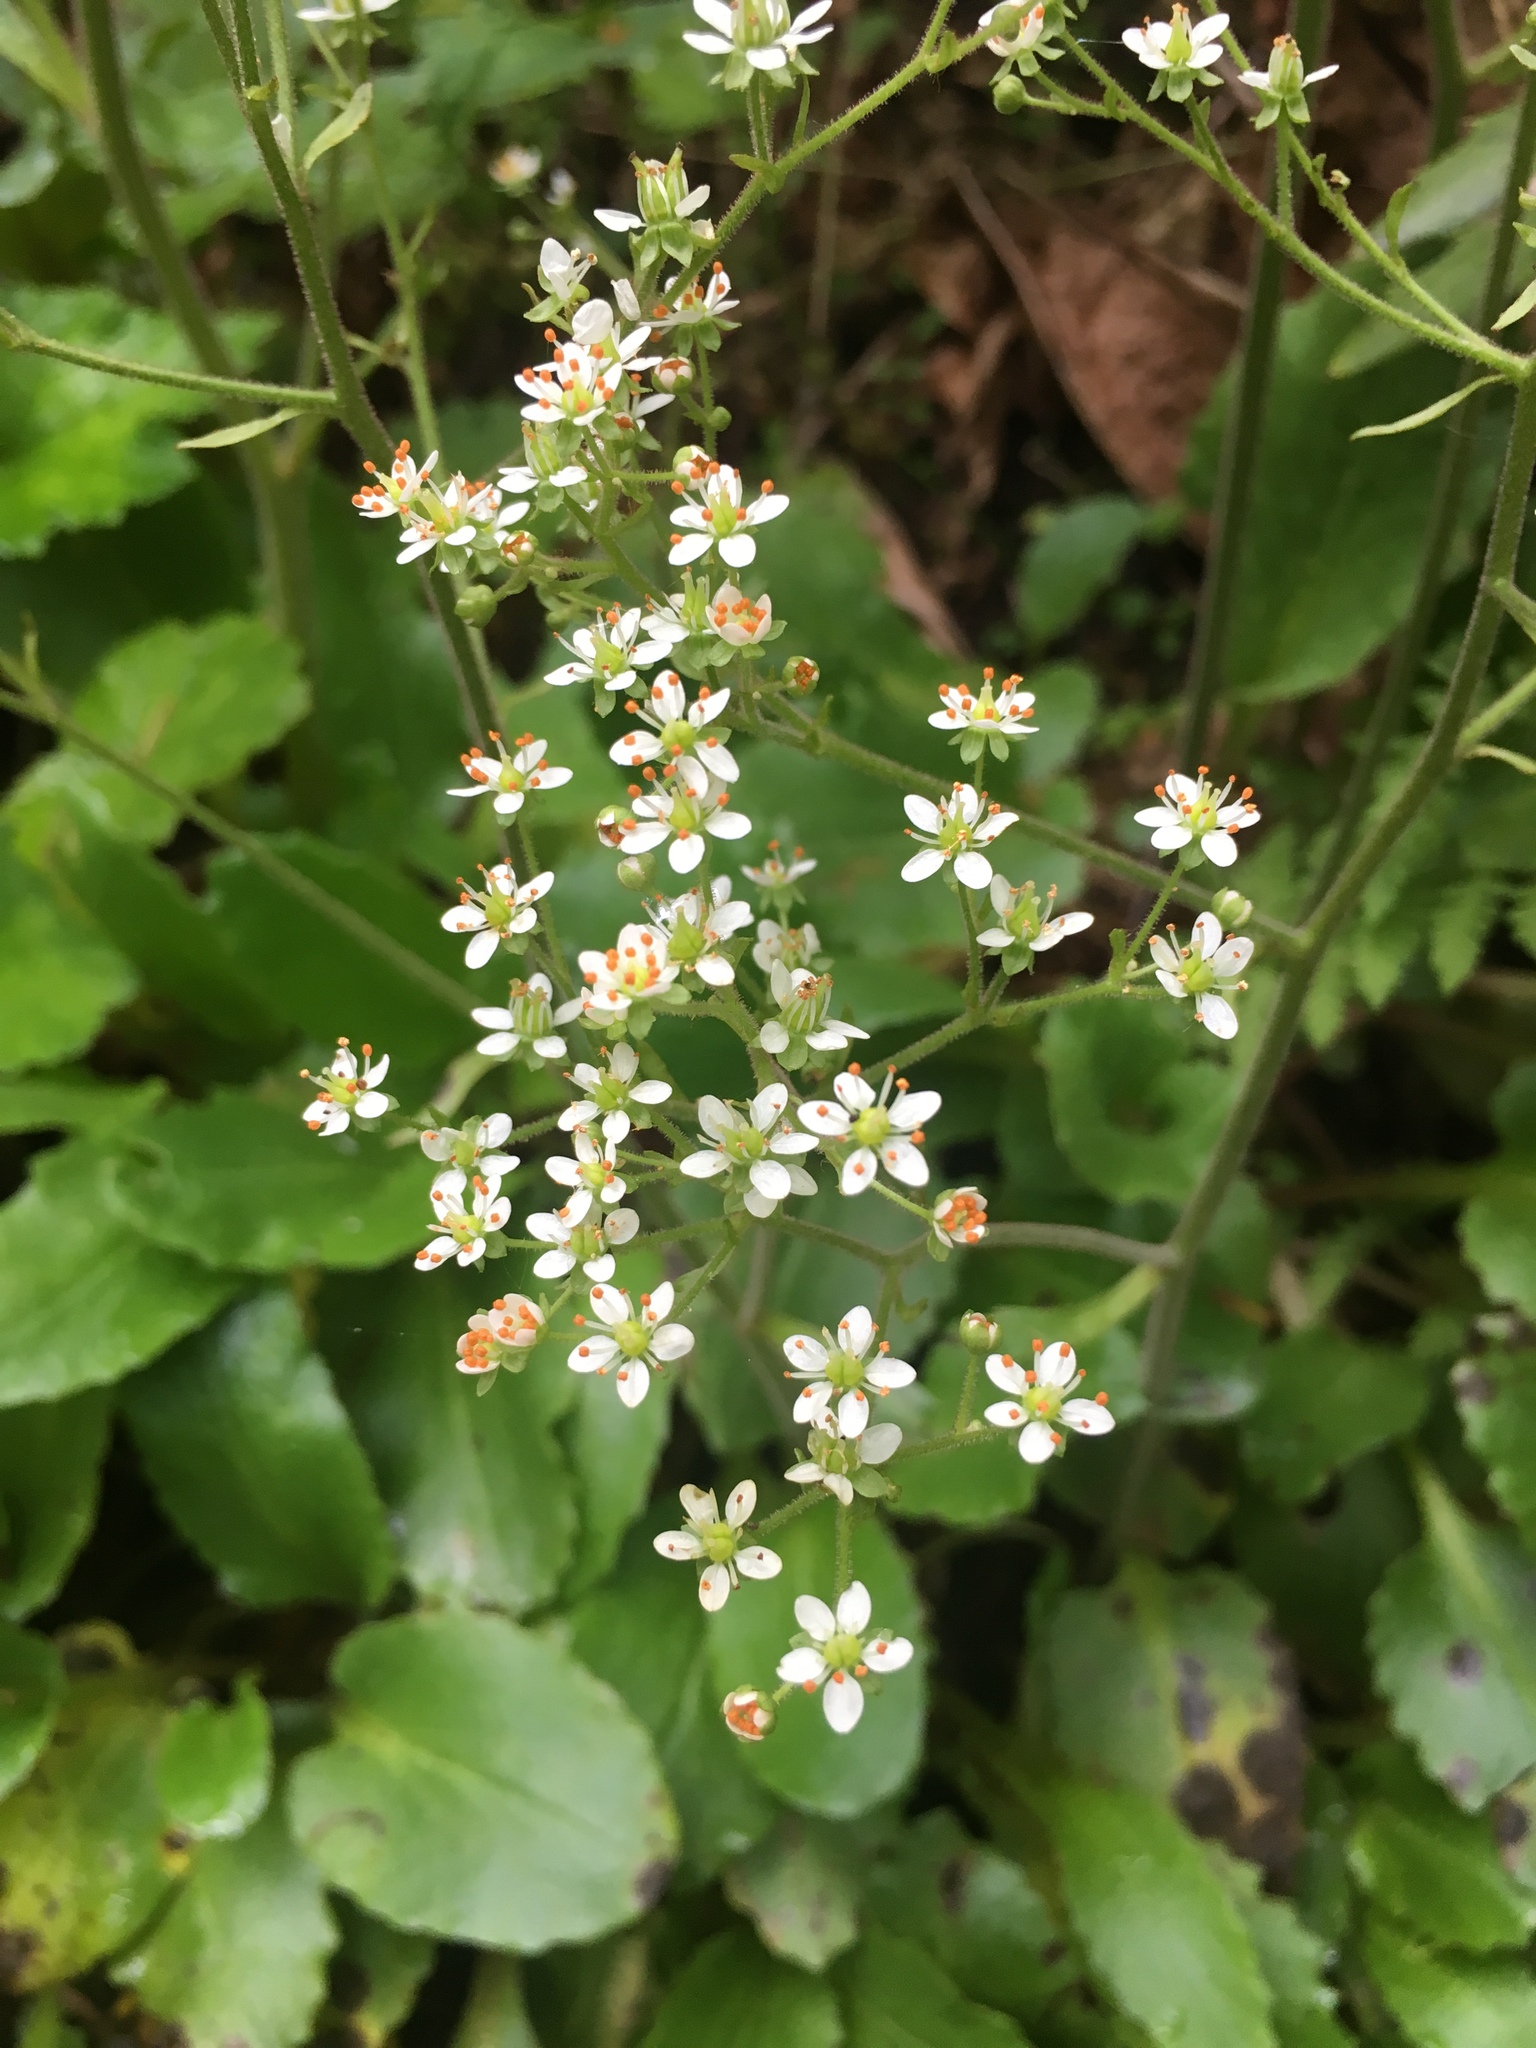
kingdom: Plantae
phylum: Tracheophyta
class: Magnoliopsida
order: Saxifragales
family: Saxifragaceae
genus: Micranthes
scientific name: Micranthes gormanii
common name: Gorman's saxifrage
